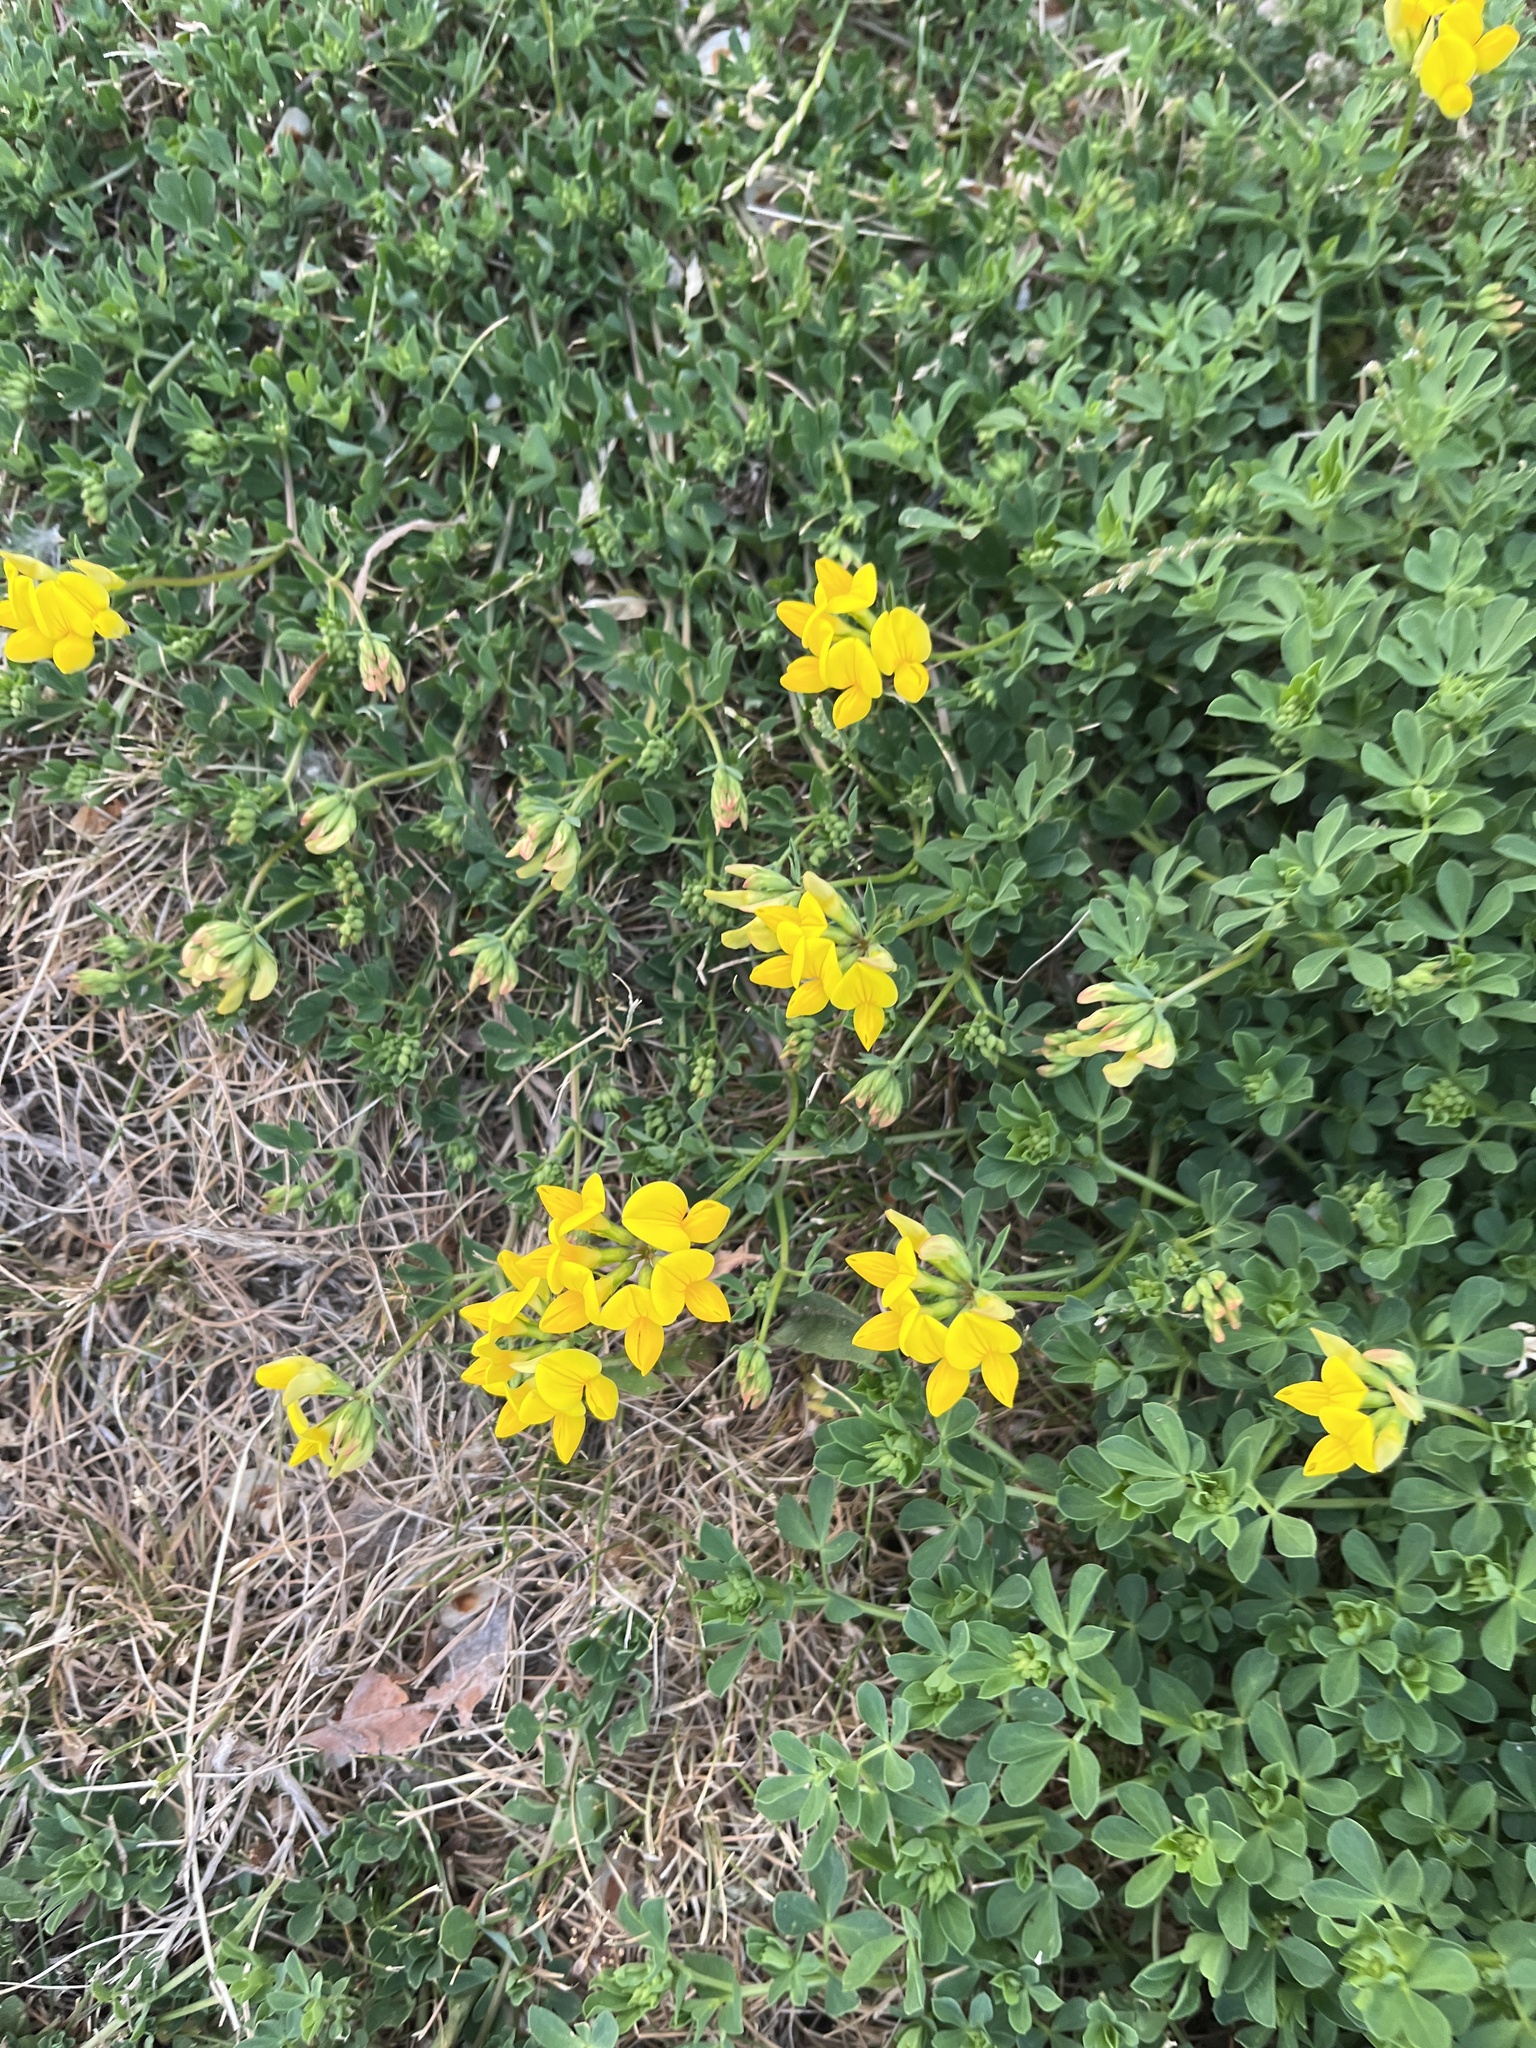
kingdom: Plantae
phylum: Tracheophyta
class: Magnoliopsida
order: Fabales
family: Fabaceae
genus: Lotus
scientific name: Lotus corniculatus
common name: Common bird's-foot-trefoil
